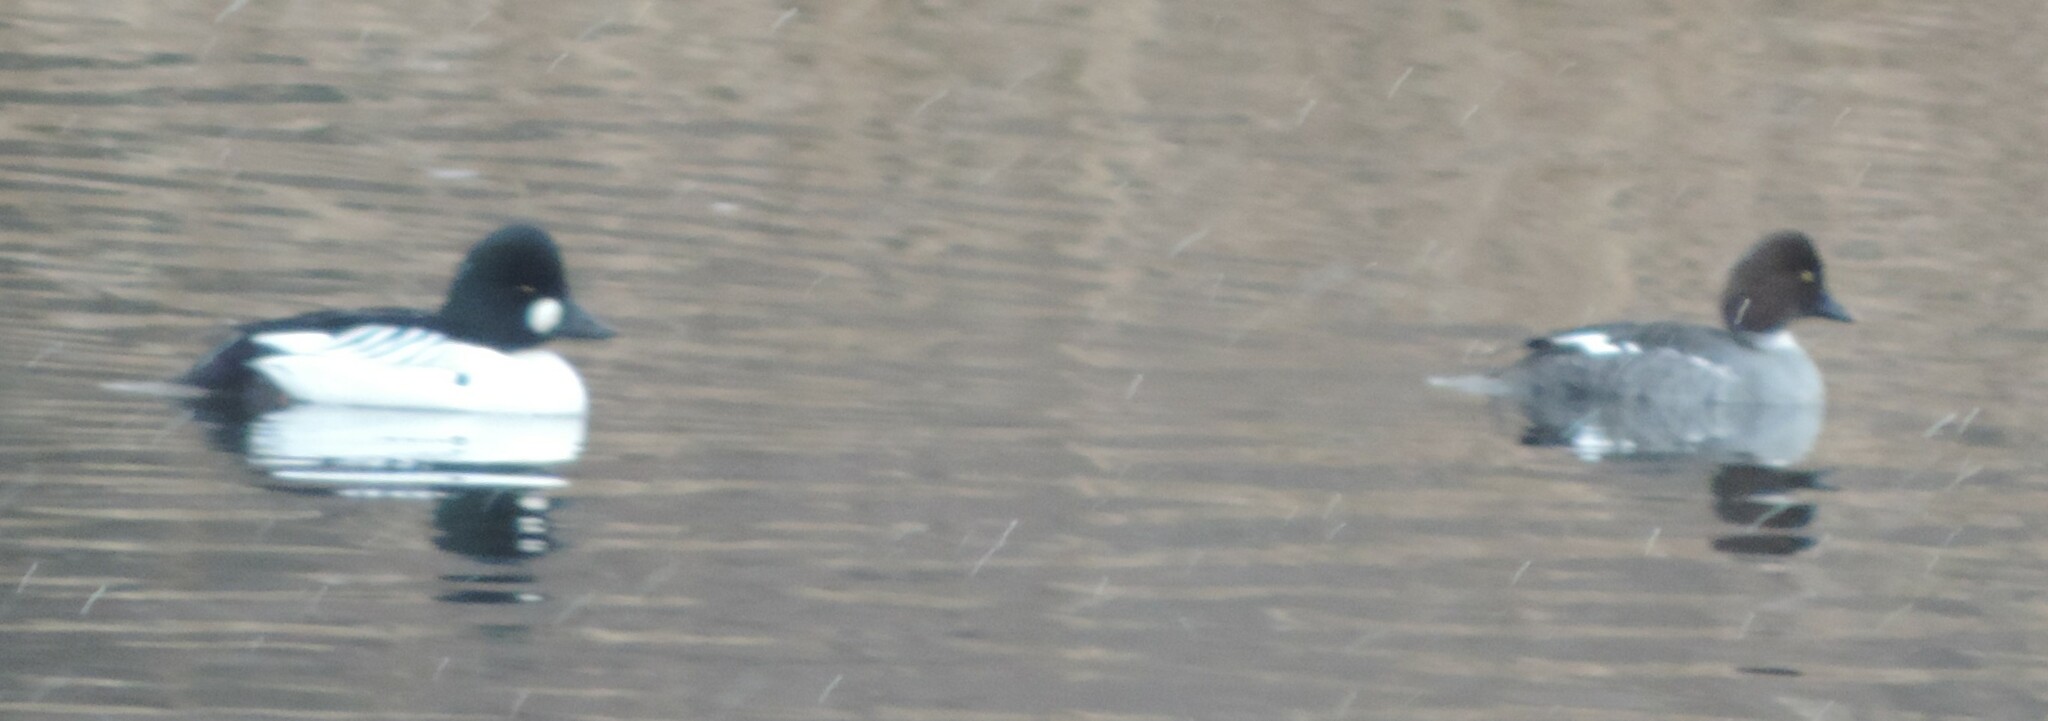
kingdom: Animalia
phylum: Chordata
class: Aves
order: Anseriformes
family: Anatidae
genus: Bucephala
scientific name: Bucephala clangula
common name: Common goldeneye
